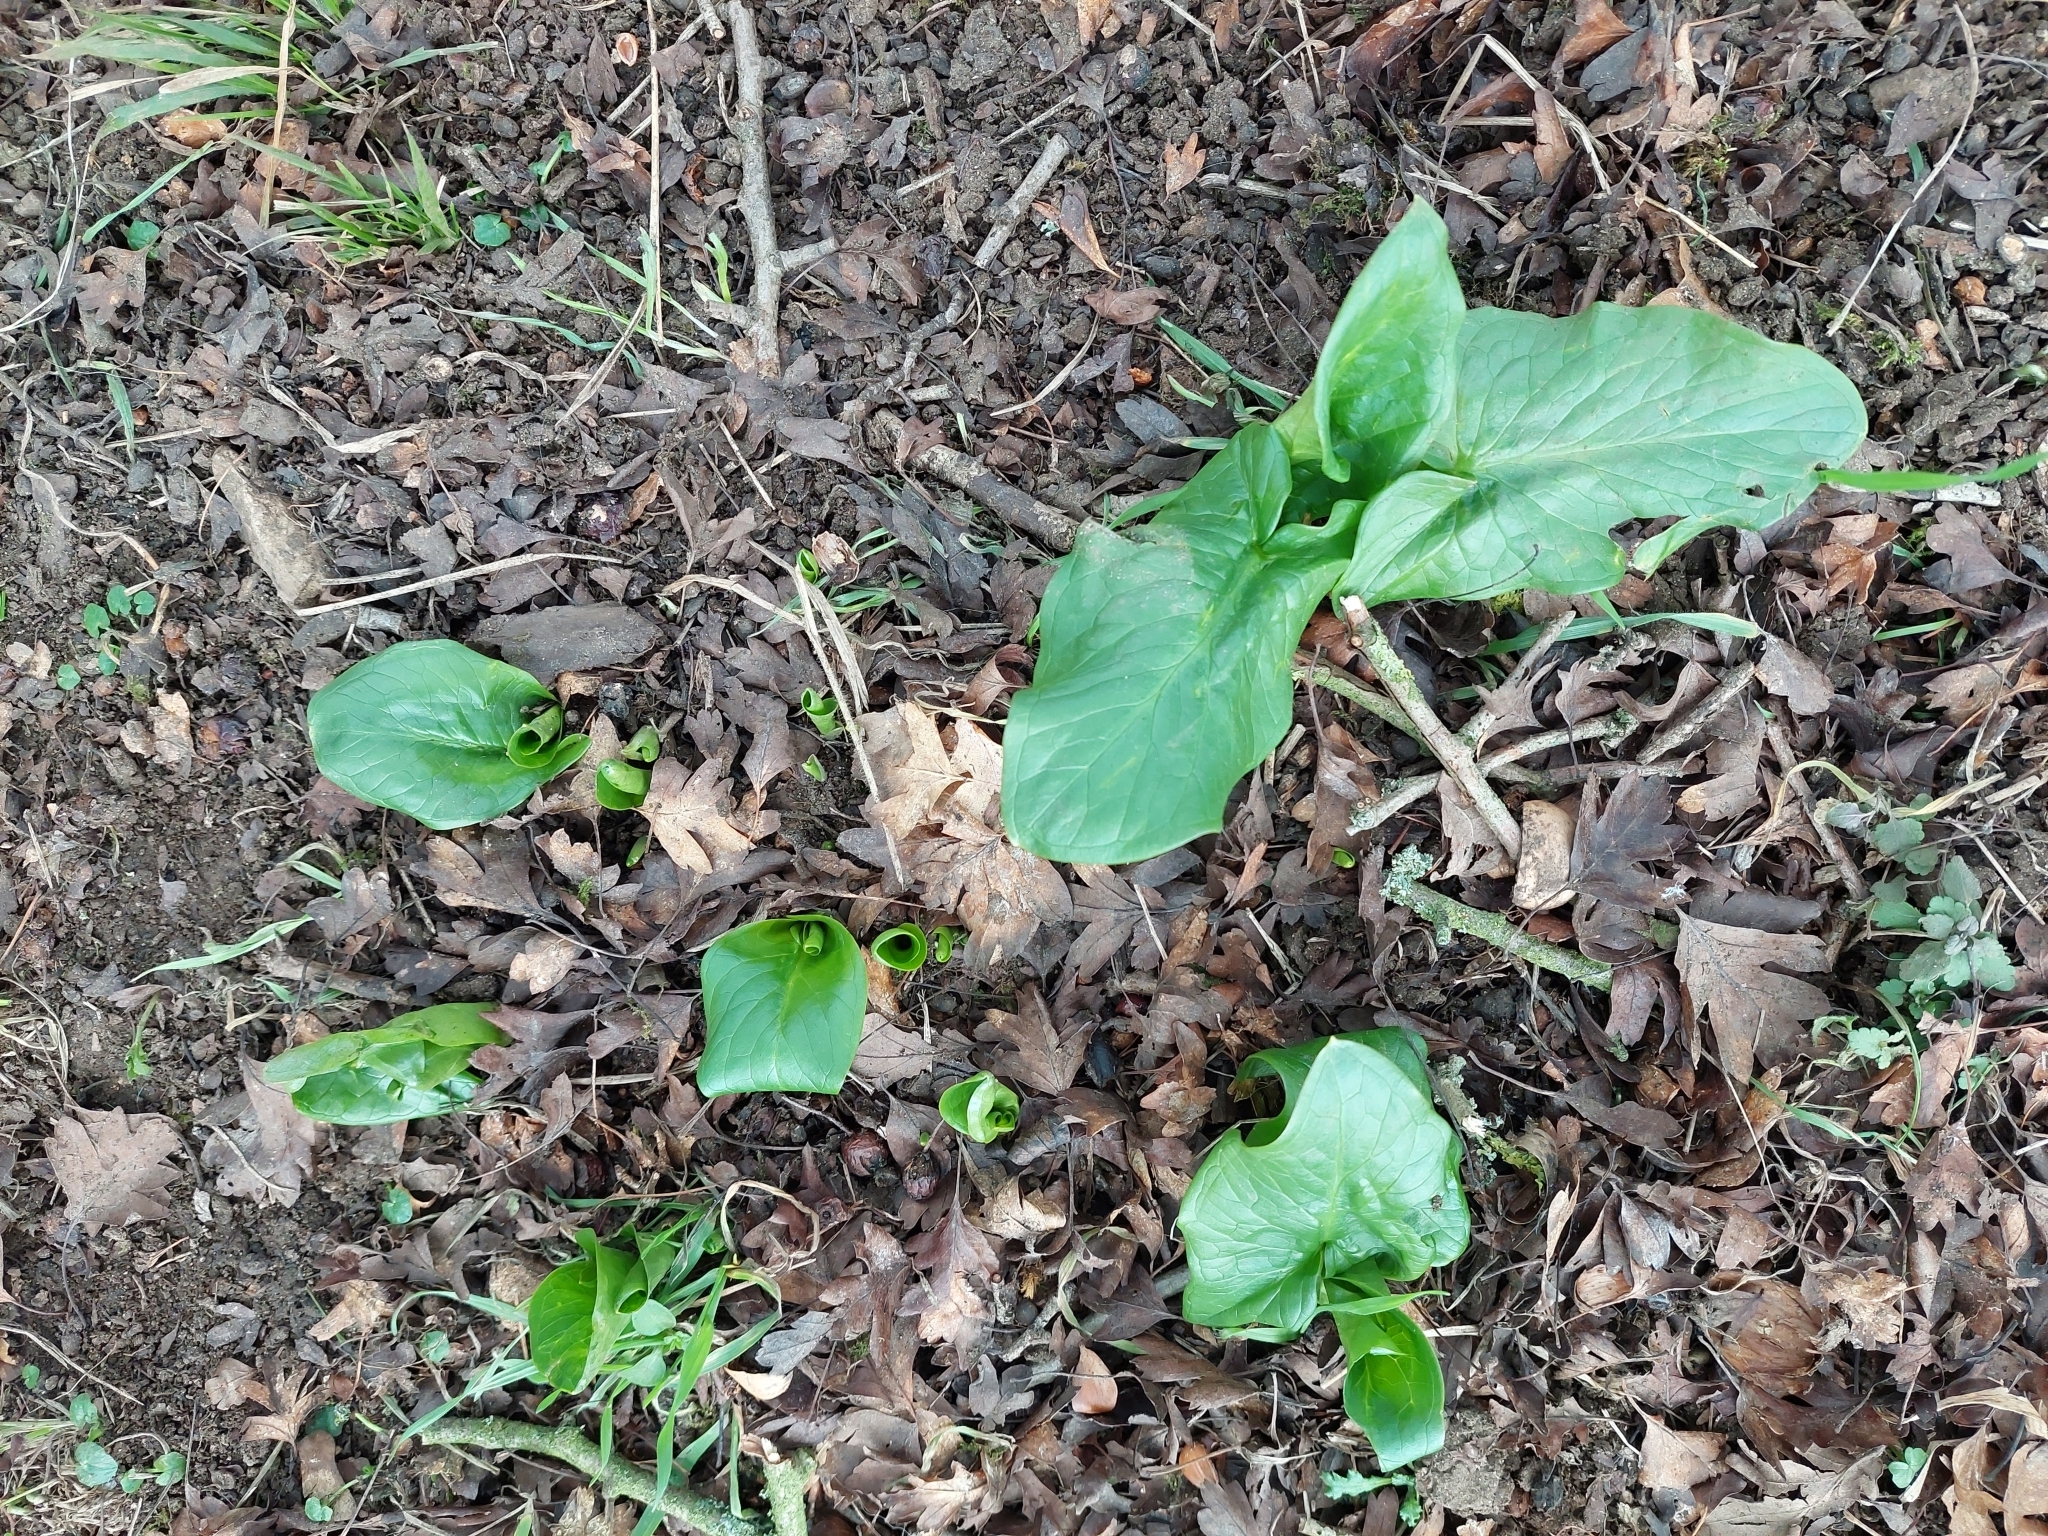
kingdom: Plantae
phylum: Tracheophyta
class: Liliopsida
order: Alismatales
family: Araceae
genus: Arum
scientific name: Arum maculatum
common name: Lords-and-ladies
